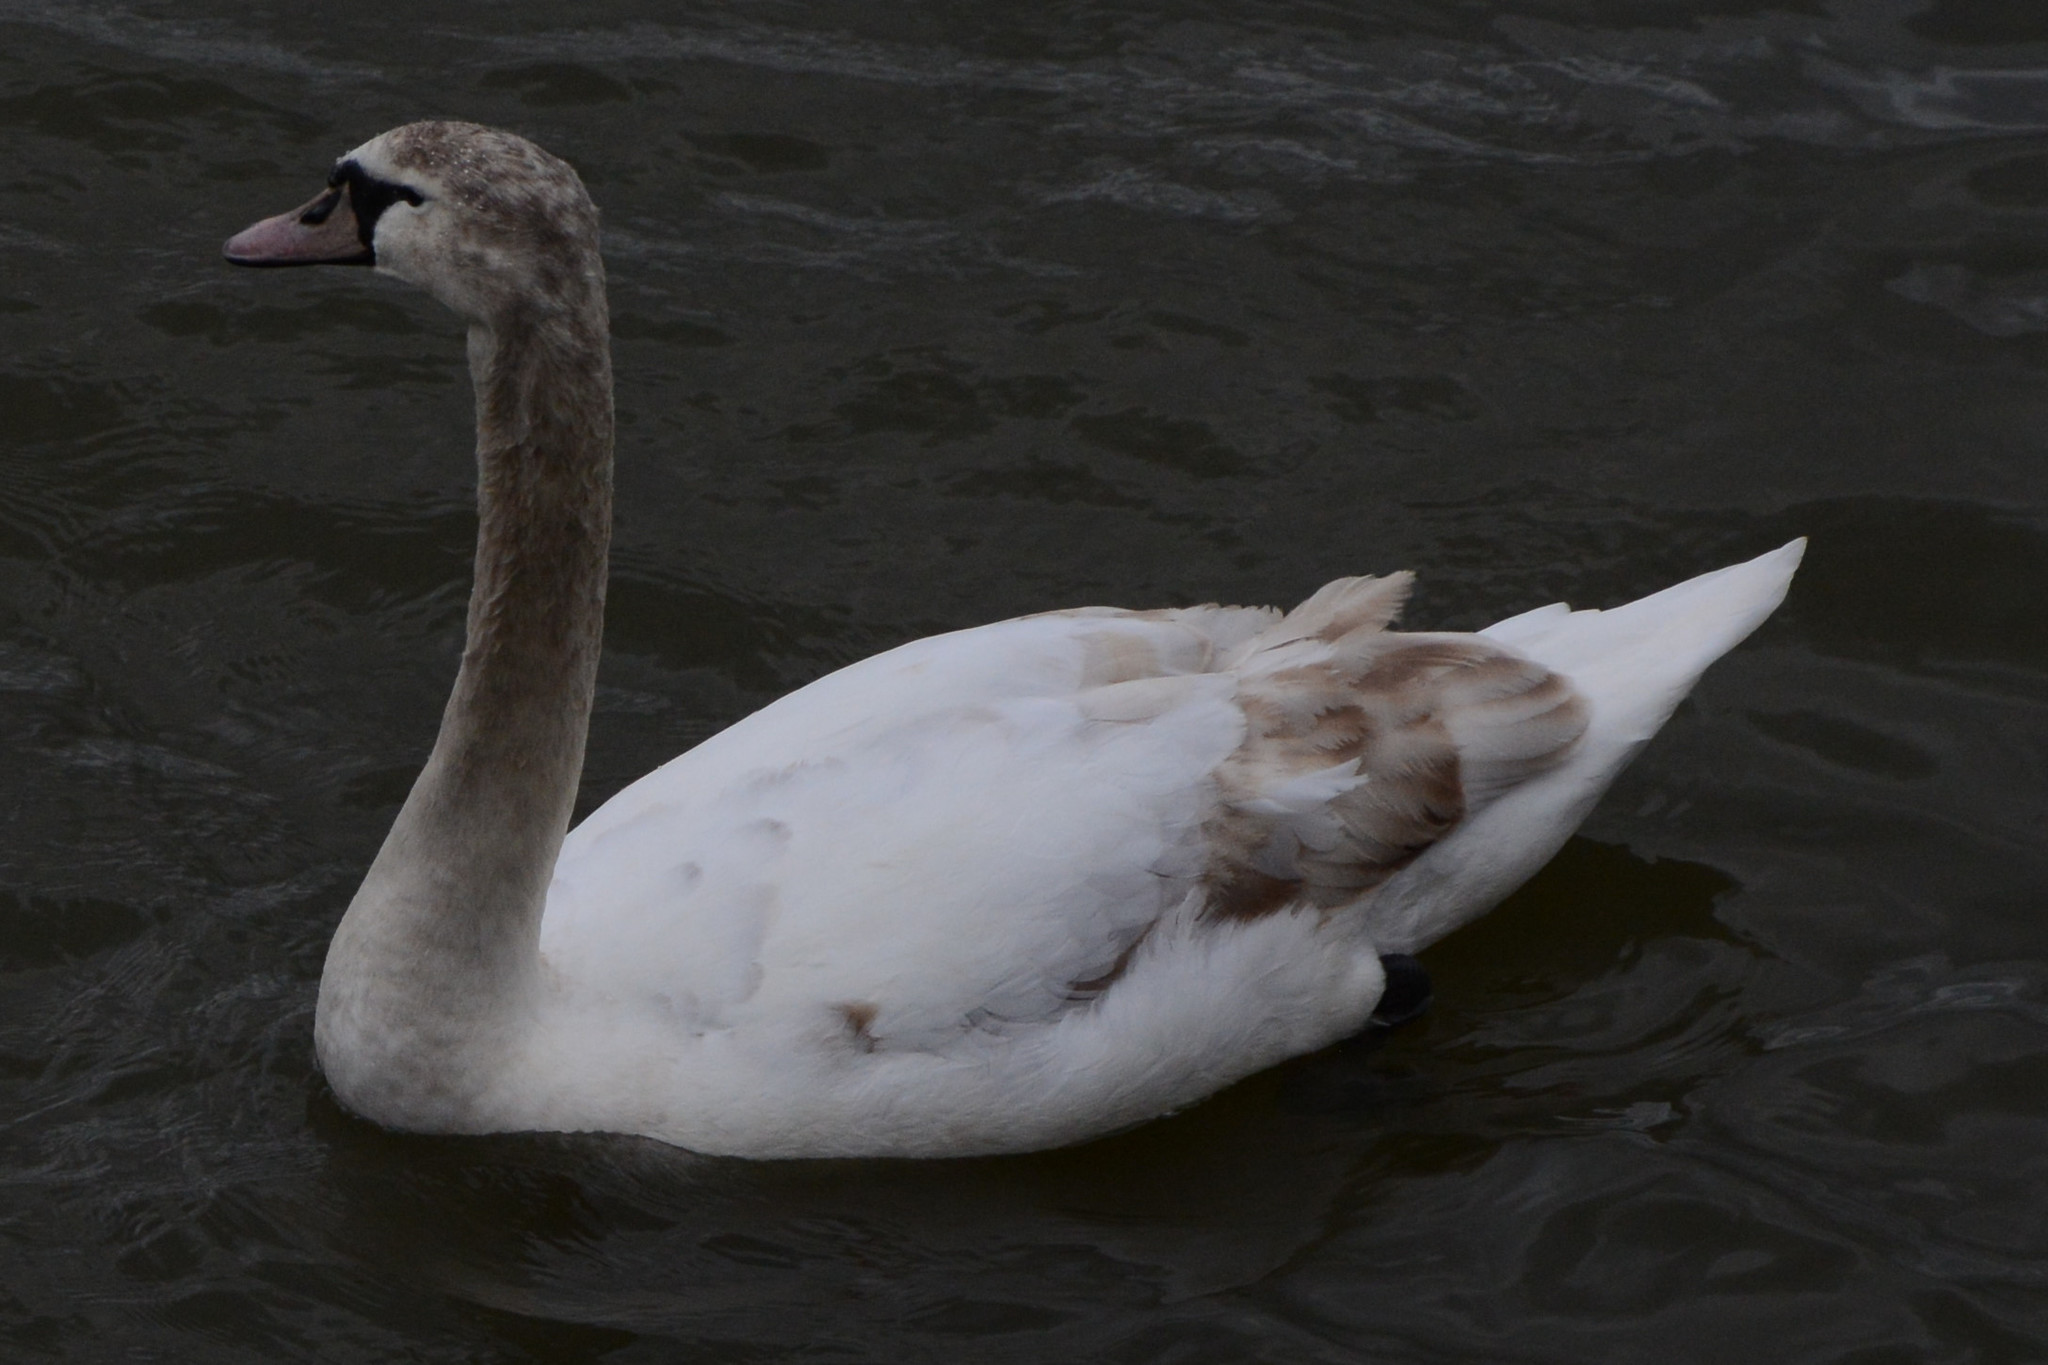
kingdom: Animalia
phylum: Chordata
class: Aves
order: Anseriformes
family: Anatidae
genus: Cygnus
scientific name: Cygnus olor
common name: Mute swan
